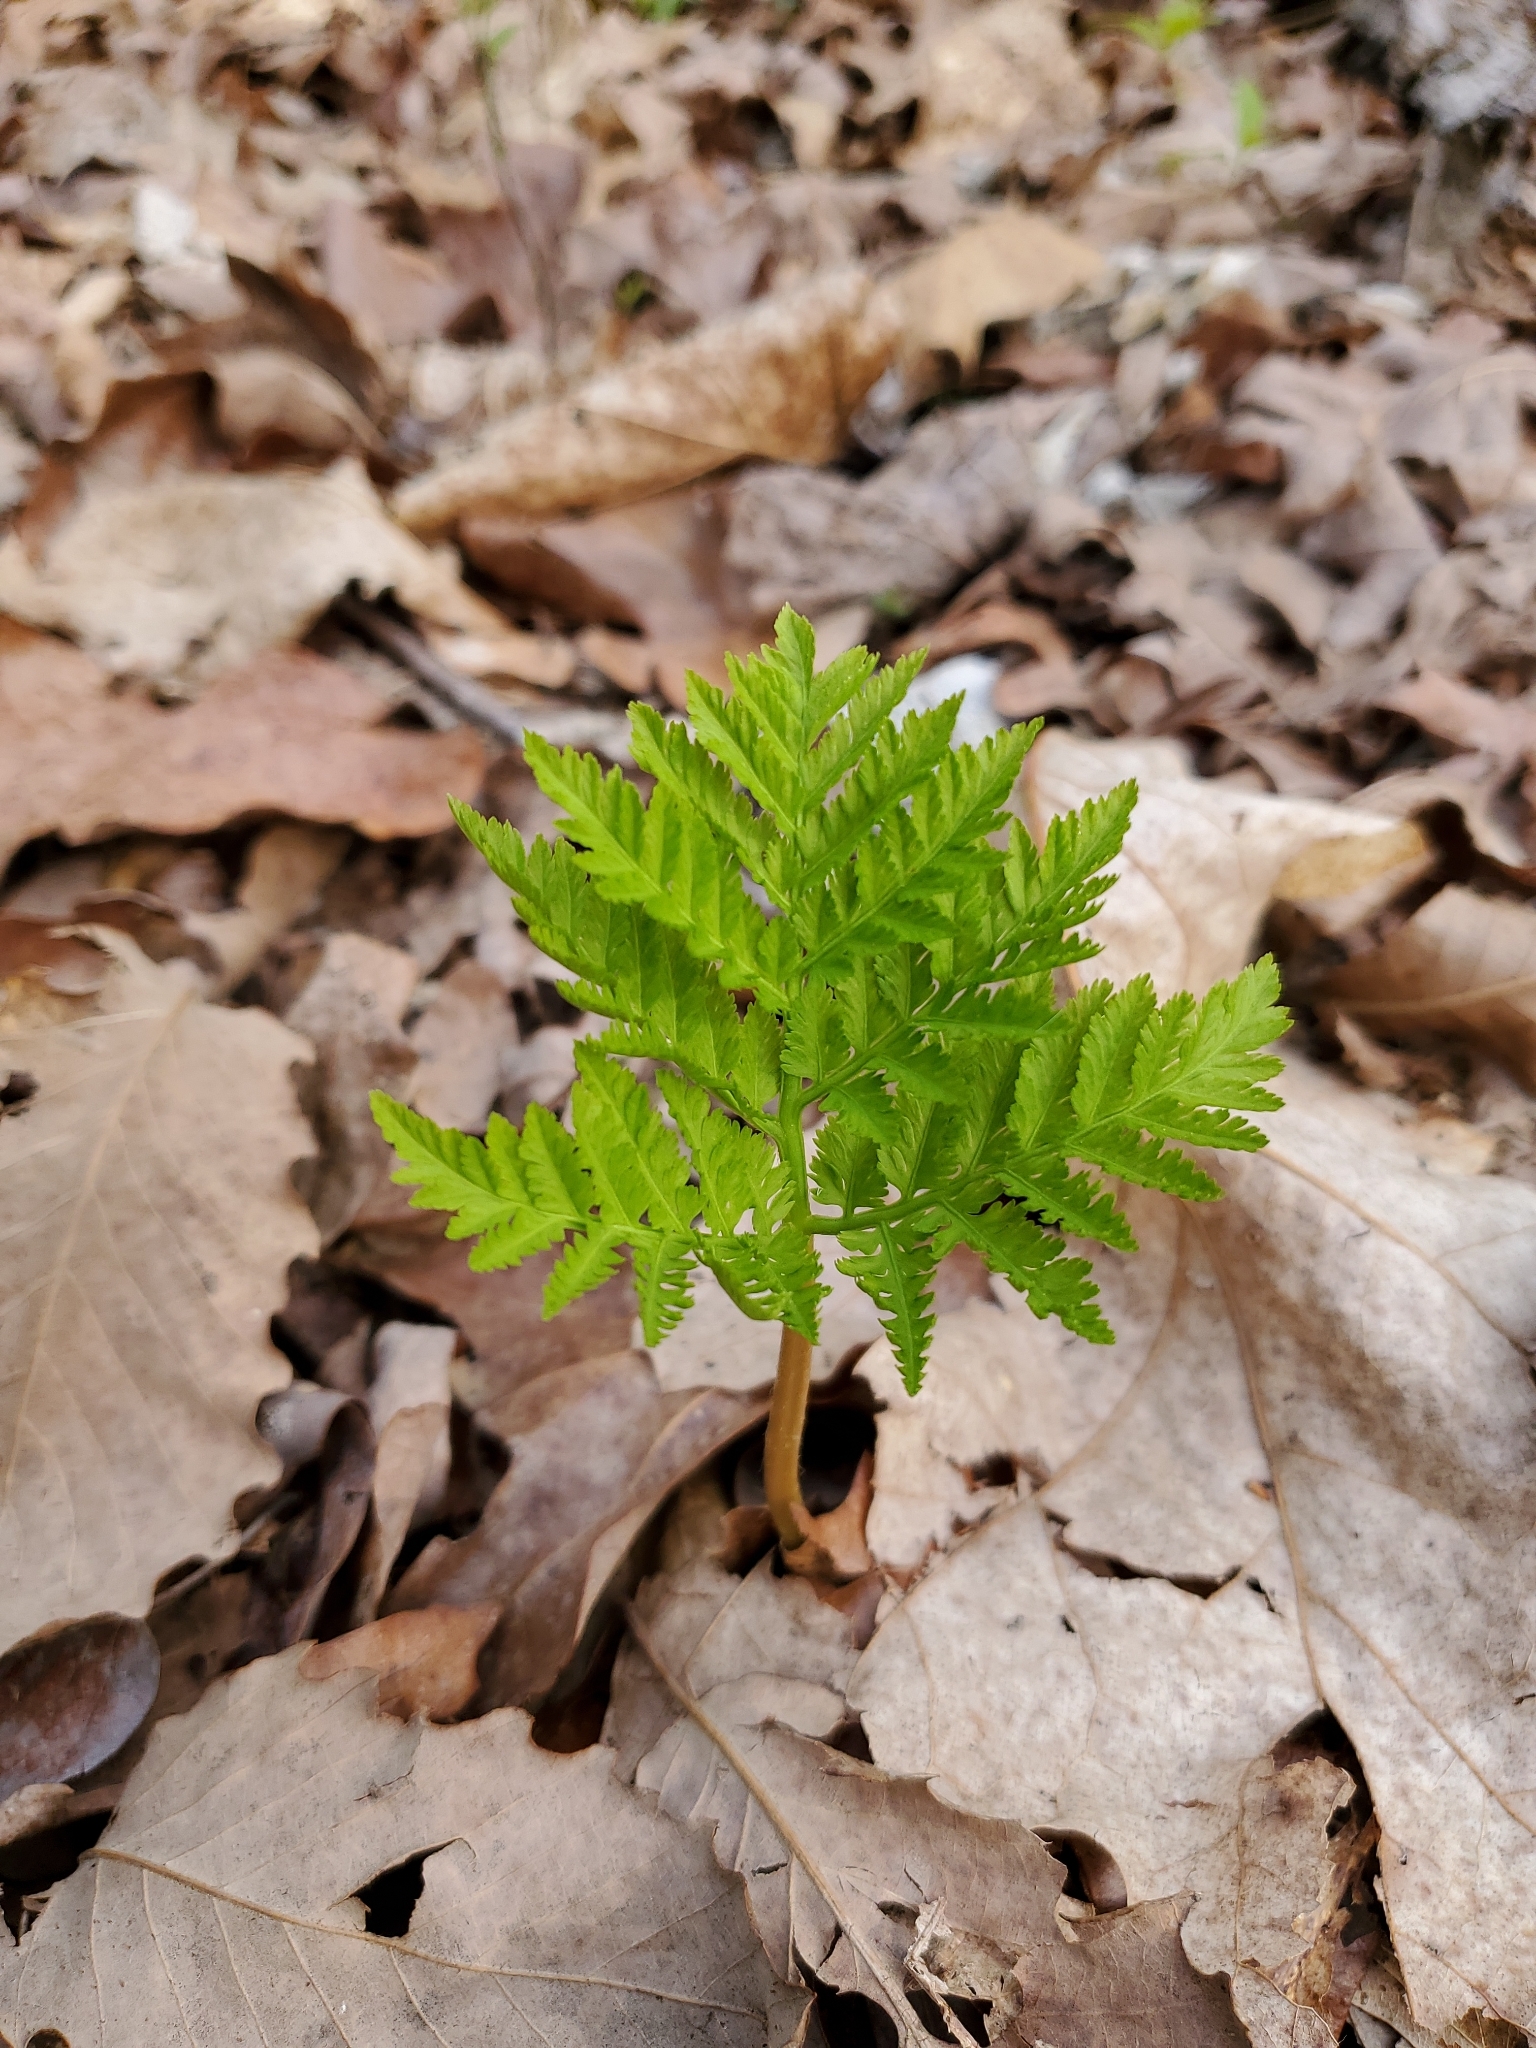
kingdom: Plantae
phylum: Tracheophyta
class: Polypodiopsida
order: Ophioglossales
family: Ophioglossaceae
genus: Botrypus
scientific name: Botrypus virginianus
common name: Common grapefern
